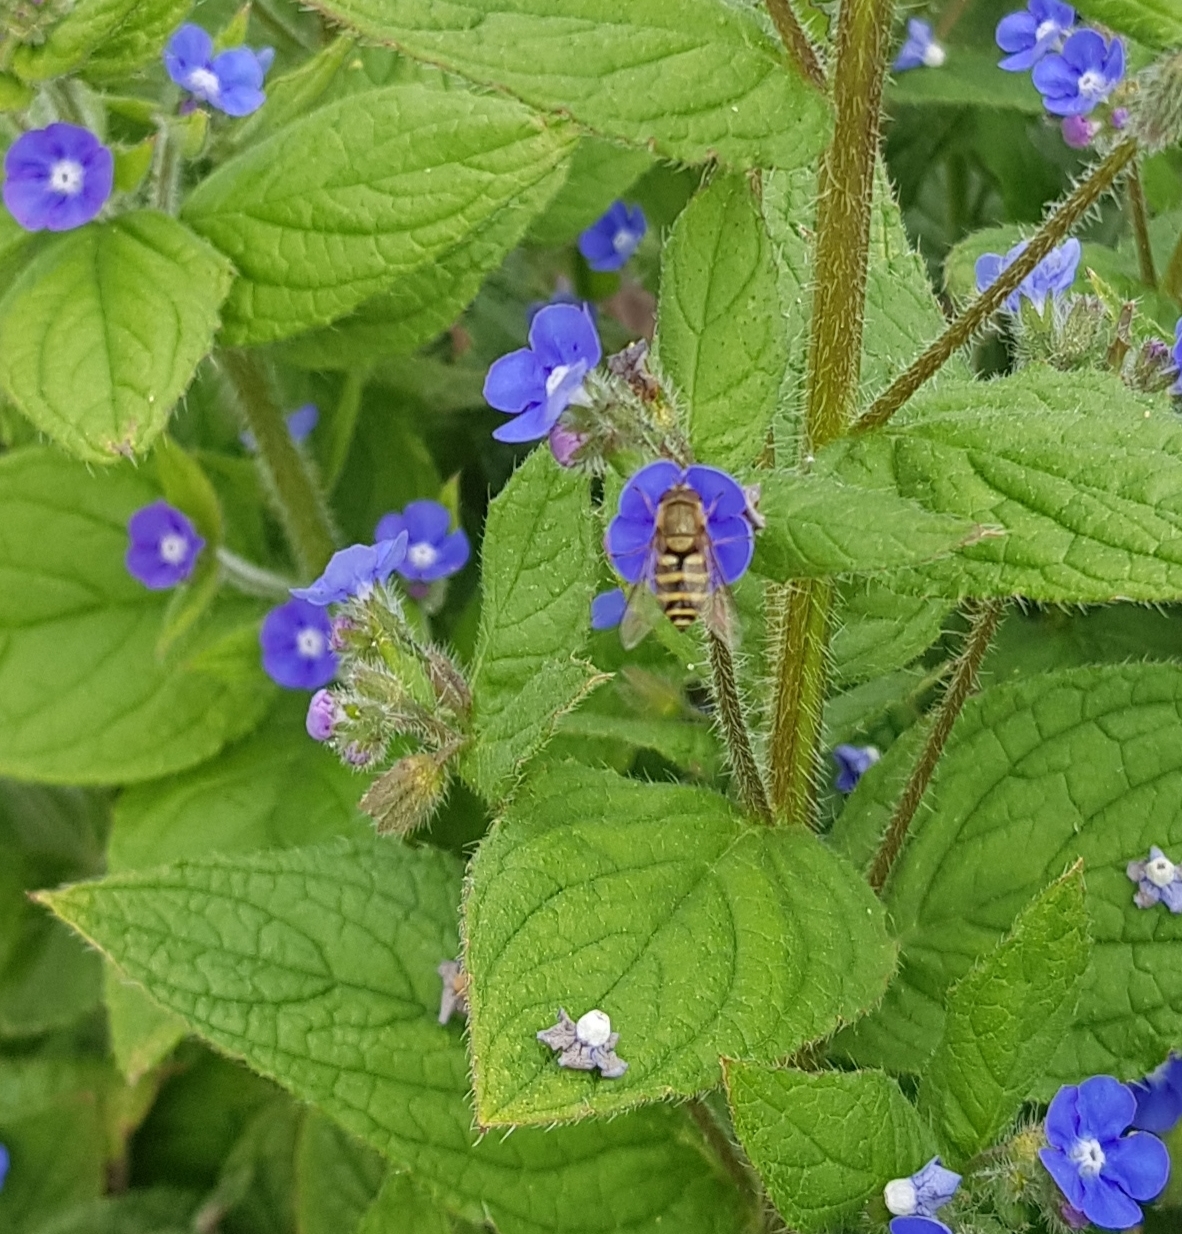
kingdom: Animalia
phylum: Arthropoda
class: Insecta
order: Diptera
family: Syrphidae
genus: Syrphus
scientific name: Syrphus
